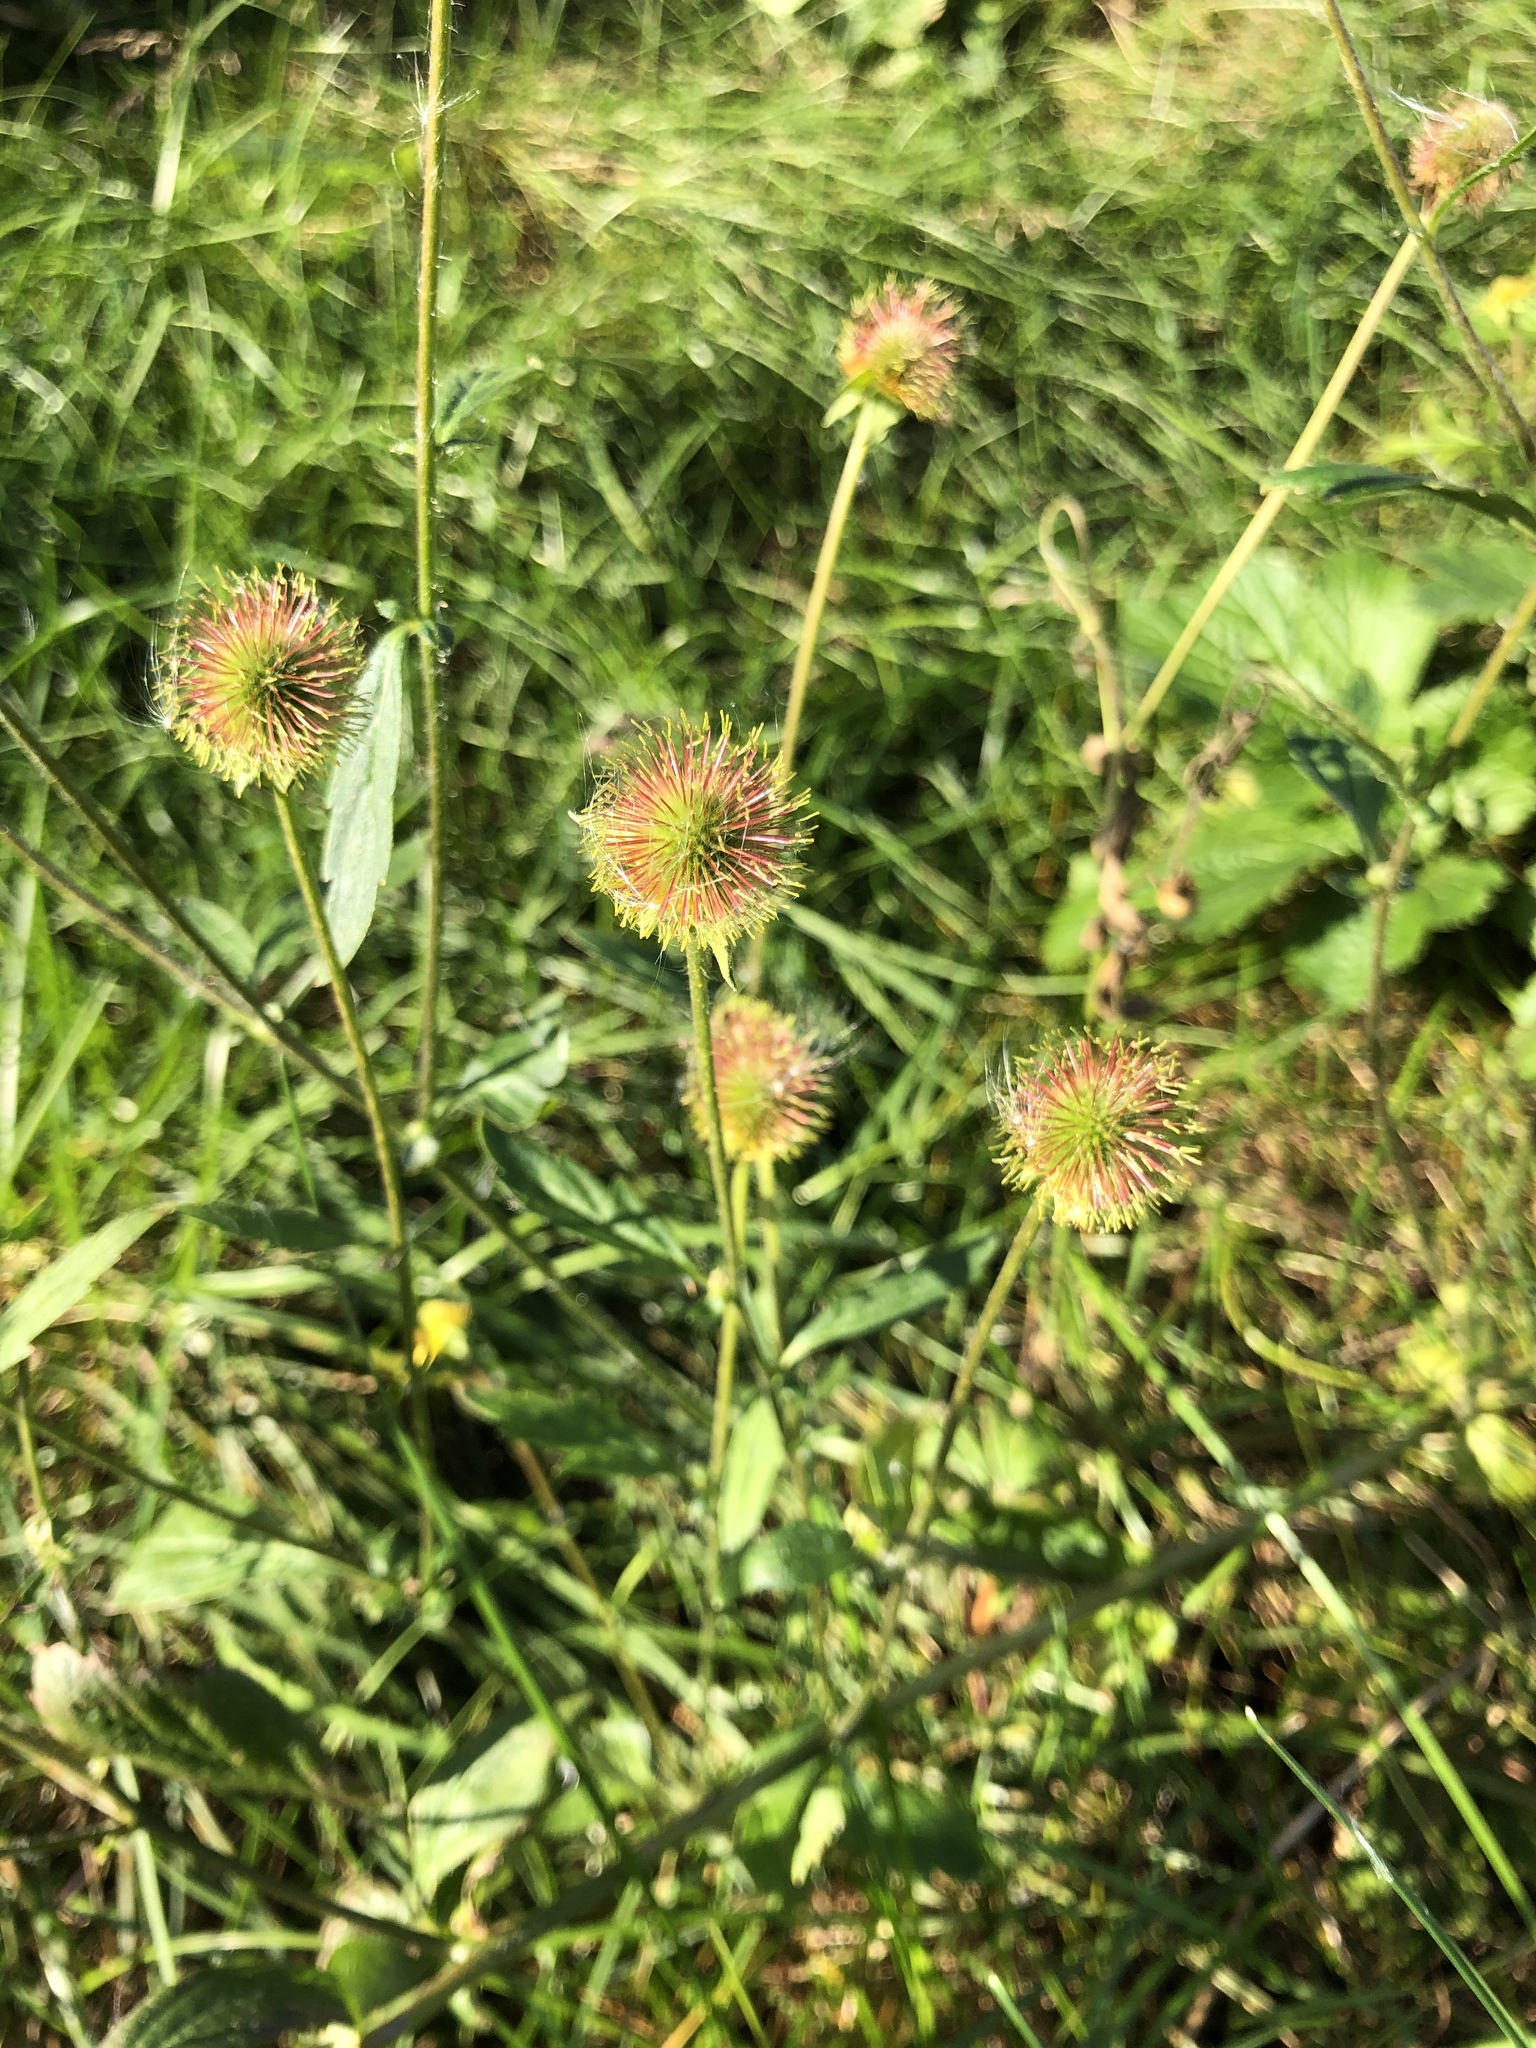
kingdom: Plantae
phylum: Tracheophyta
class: Magnoliopsida
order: Rosales
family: Rosaceae
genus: Geum
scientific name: Geum aleppicum
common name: Yellow avens
